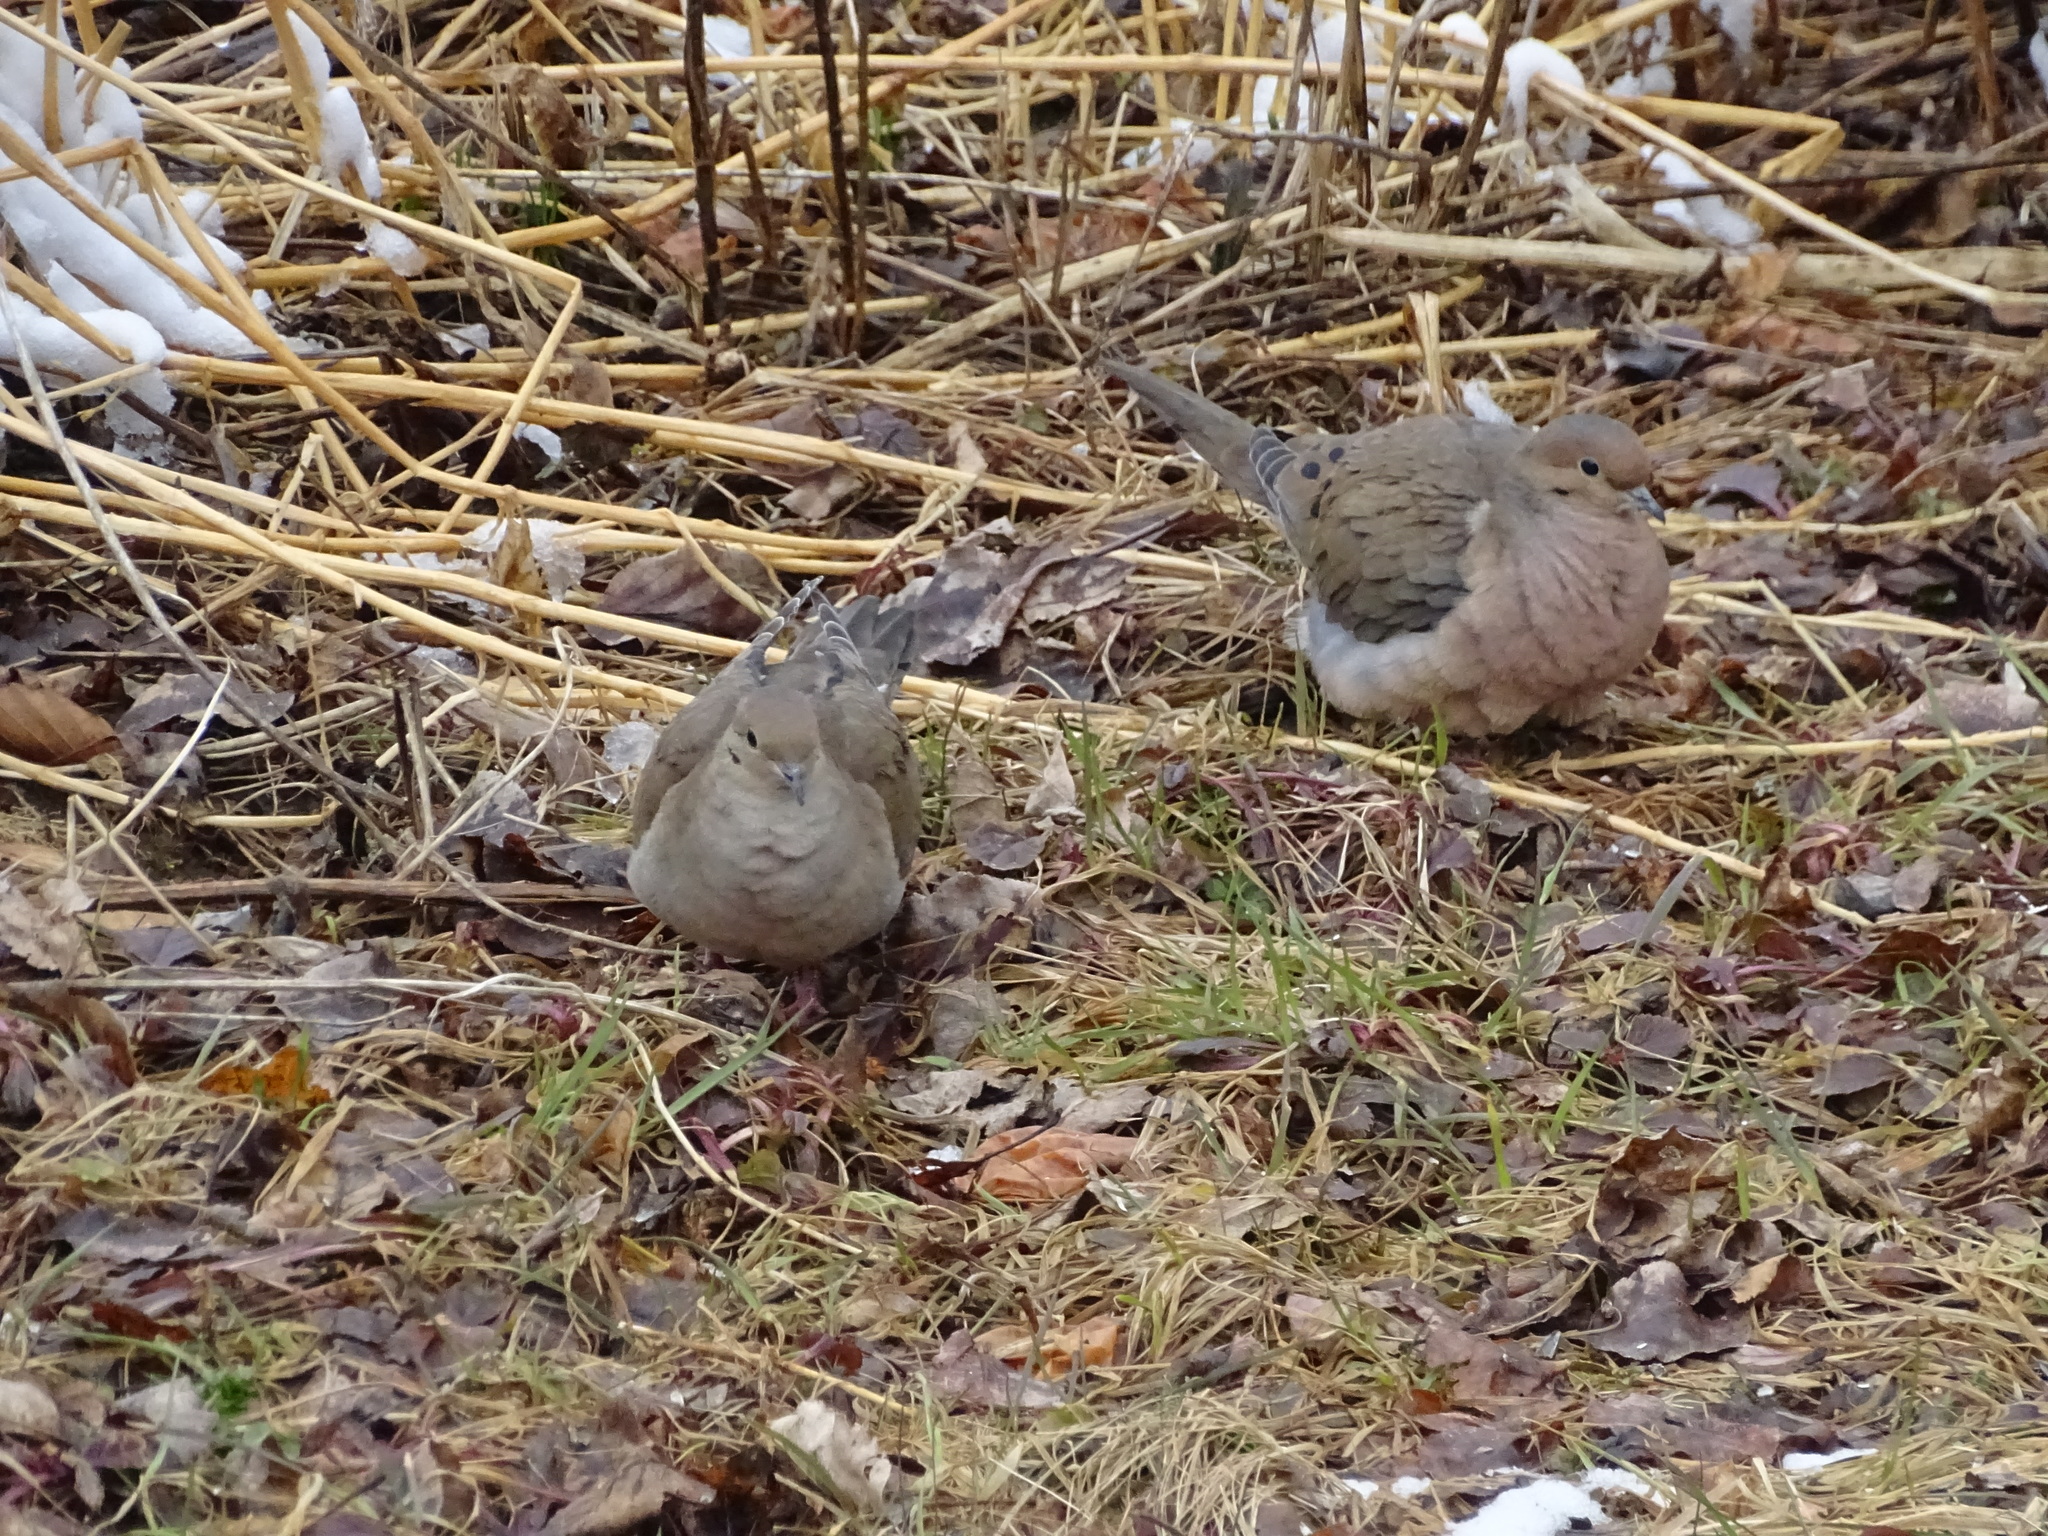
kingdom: Animalia
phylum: Chordata
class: Aves
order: Columbiformes
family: Columbidae
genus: Zenaida
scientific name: Zenaida macroura
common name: Mourning dove
